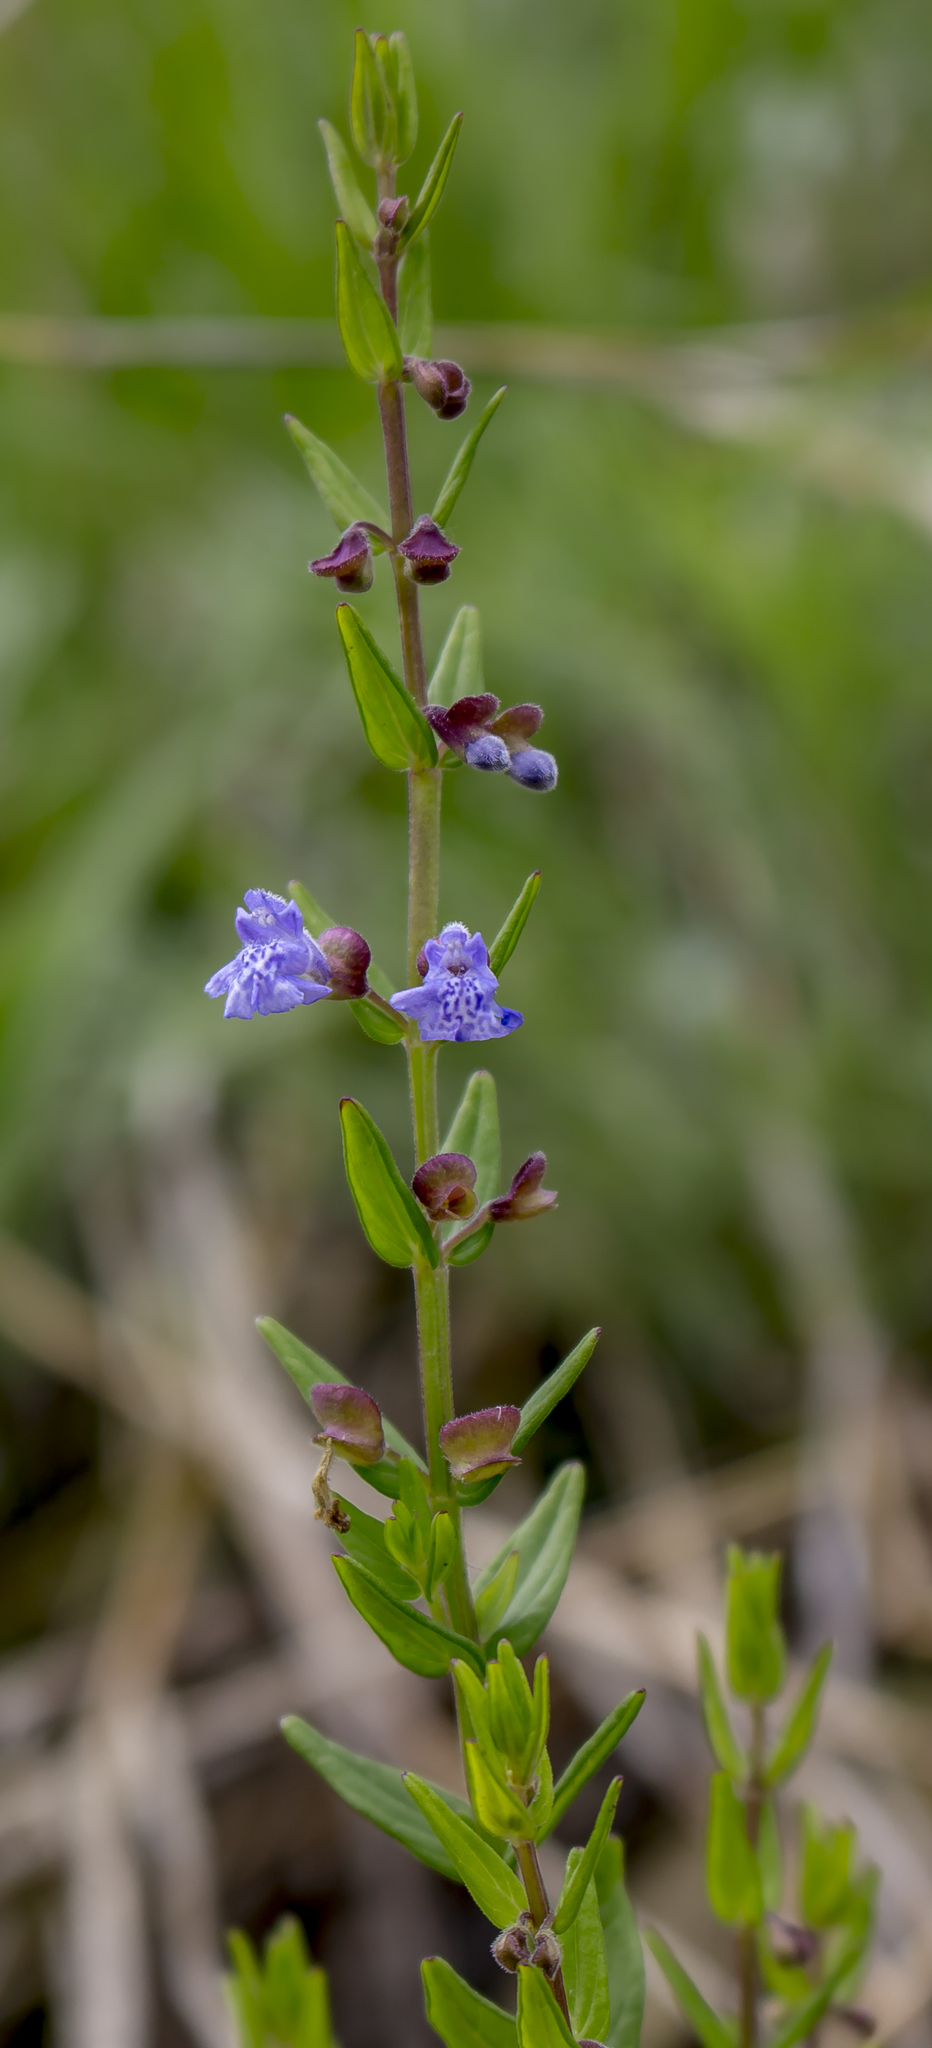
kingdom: Plantae
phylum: Tracheophyta
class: Magnoliopsida
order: Lamiales
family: Lamiaceae
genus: Scutellaria
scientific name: Scutellaria parvula
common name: Little scullcap
